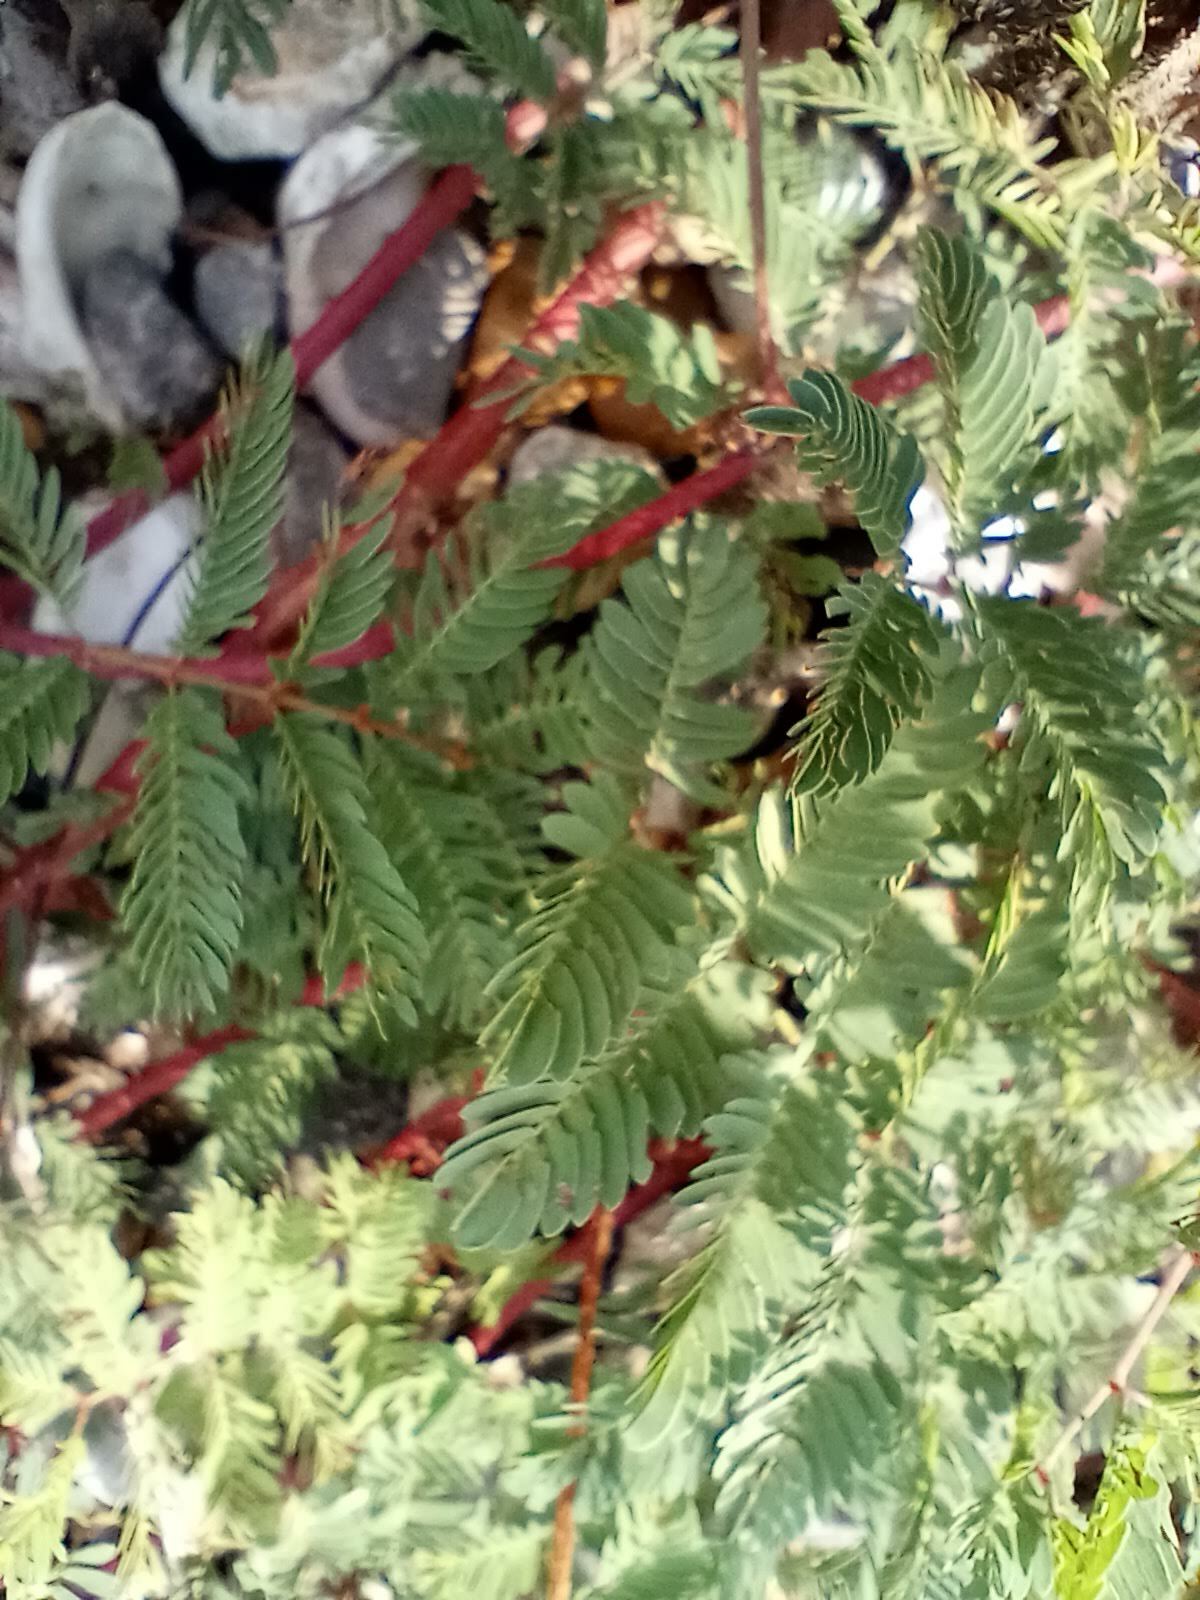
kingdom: Plantae
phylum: Tracheophyta
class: Magnoliopsida
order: Fabales
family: Fabaceae
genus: Mimosa
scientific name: Mimosa strigillosa
